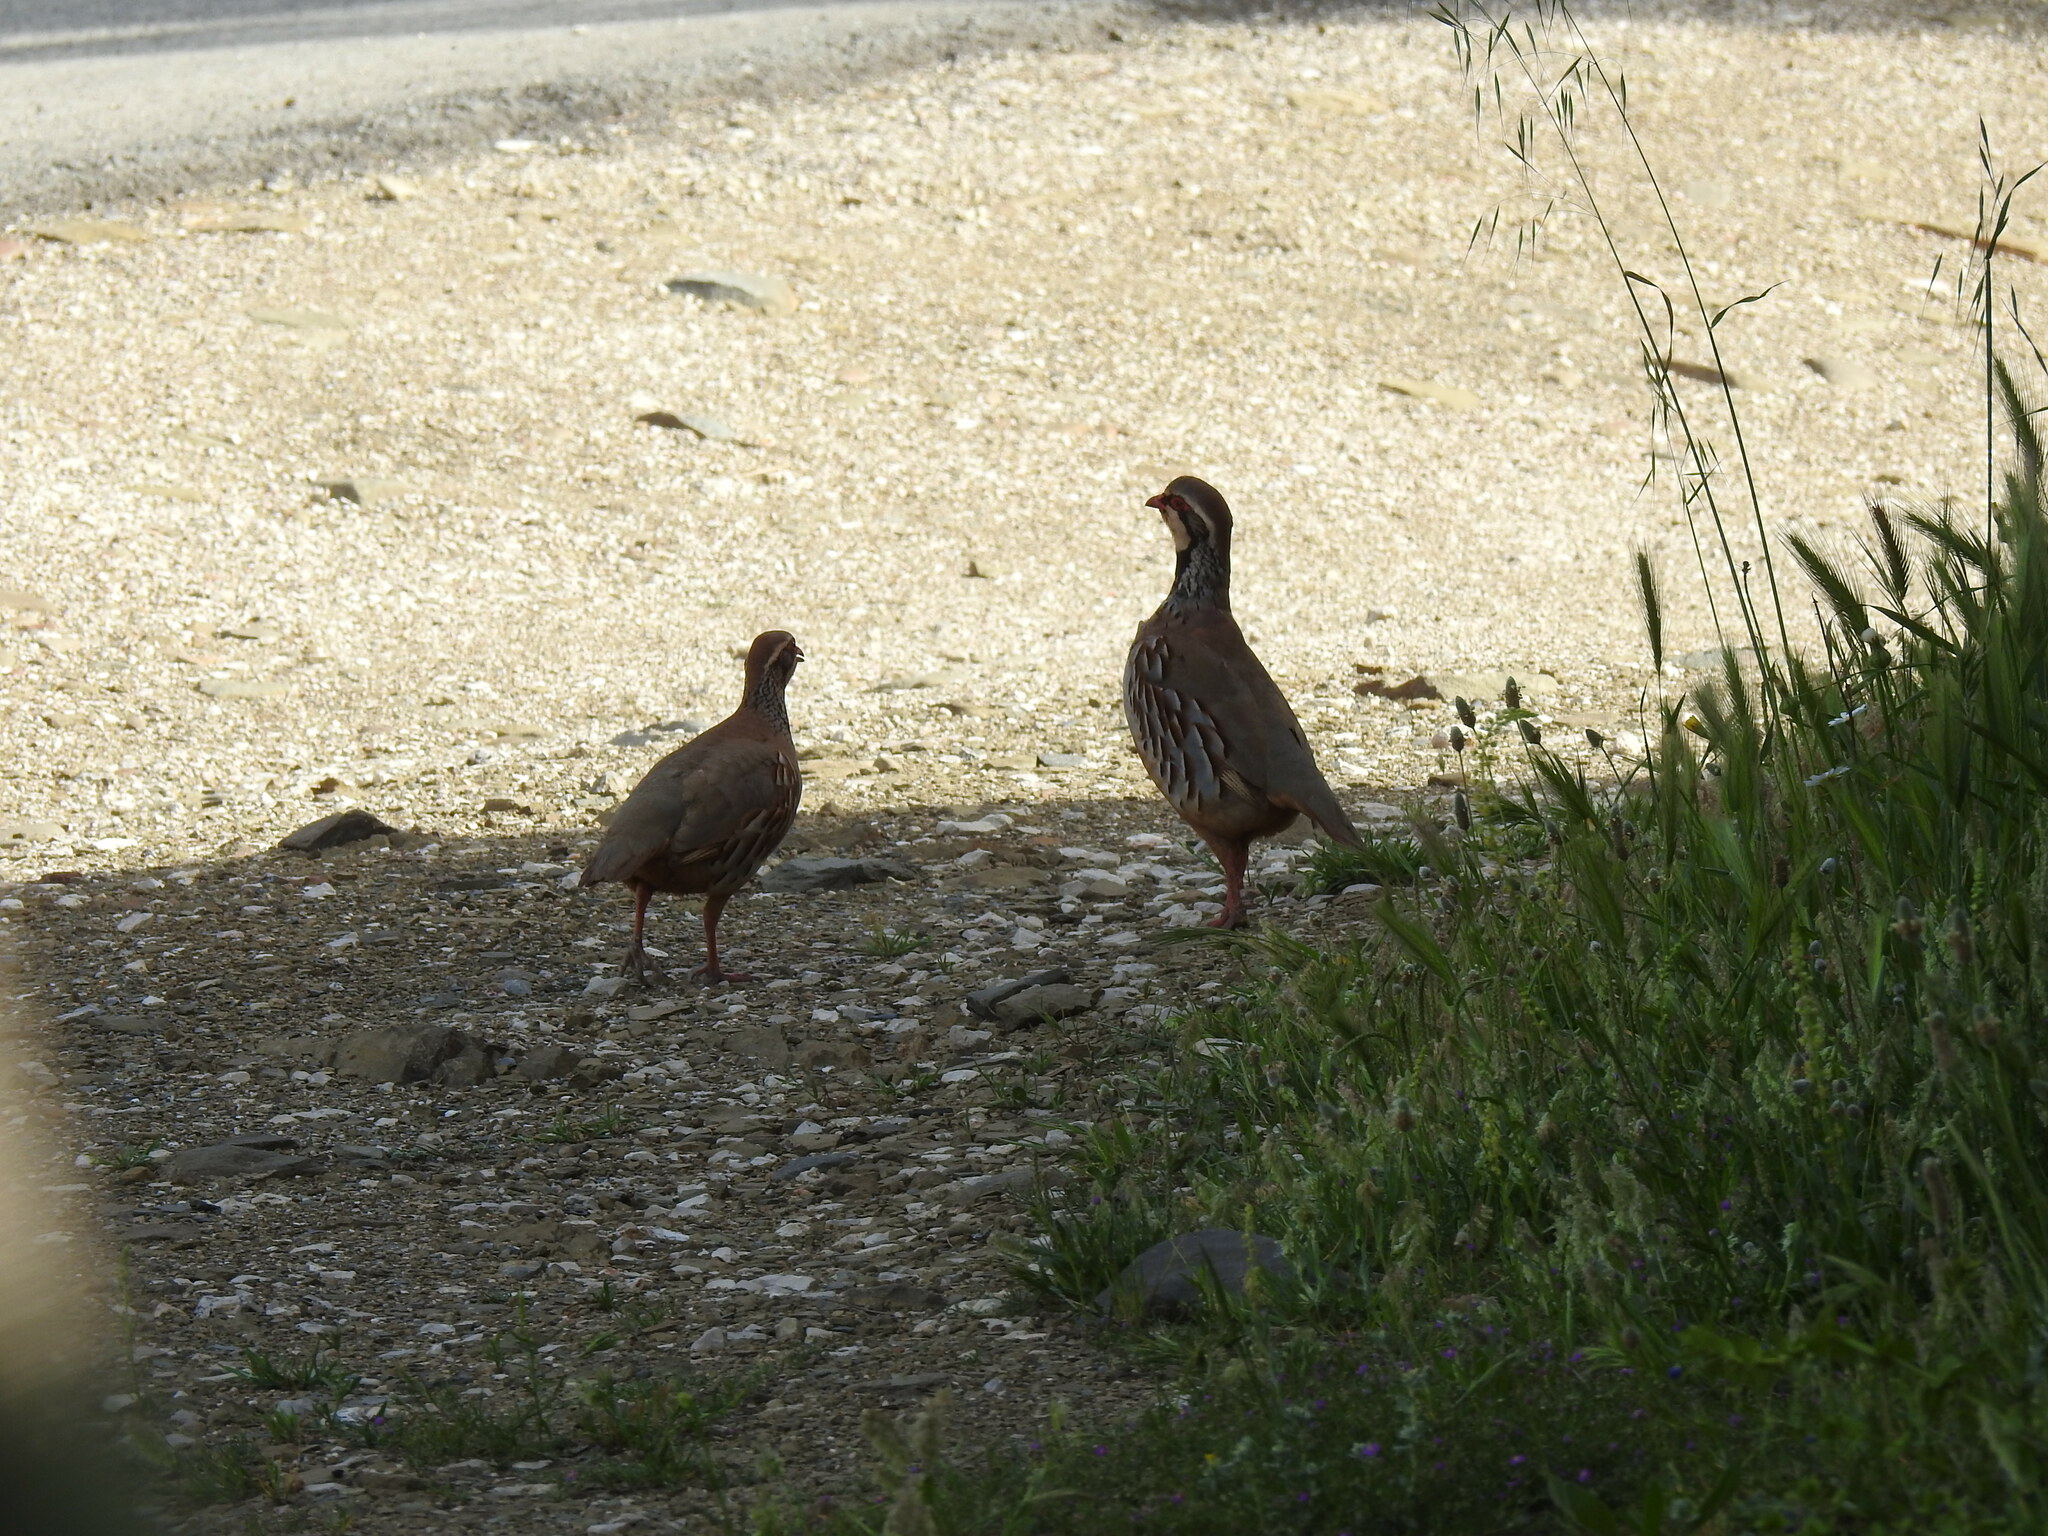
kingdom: Animalia
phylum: Chordata
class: Aves
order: Galliformes
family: Phasianidae
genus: Alectoris
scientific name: Alectoris rufa
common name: Red-legged partridge
